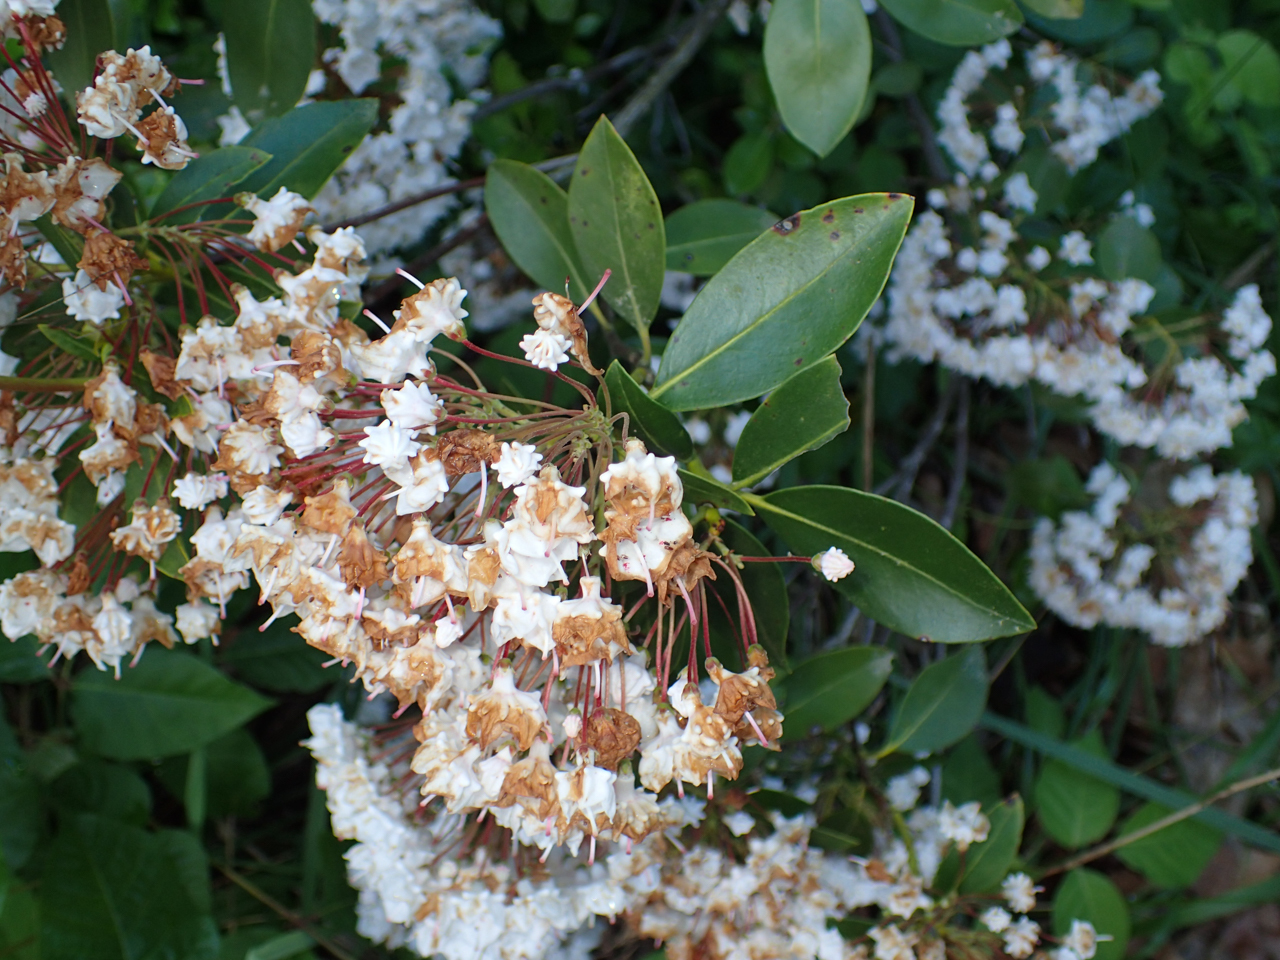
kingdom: Plantae
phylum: Tracheophyta
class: Magnoliopsida
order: Ericales
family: Ericaceae
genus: Kalmia
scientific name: Kalmia latifolia
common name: Mountain-laurel
